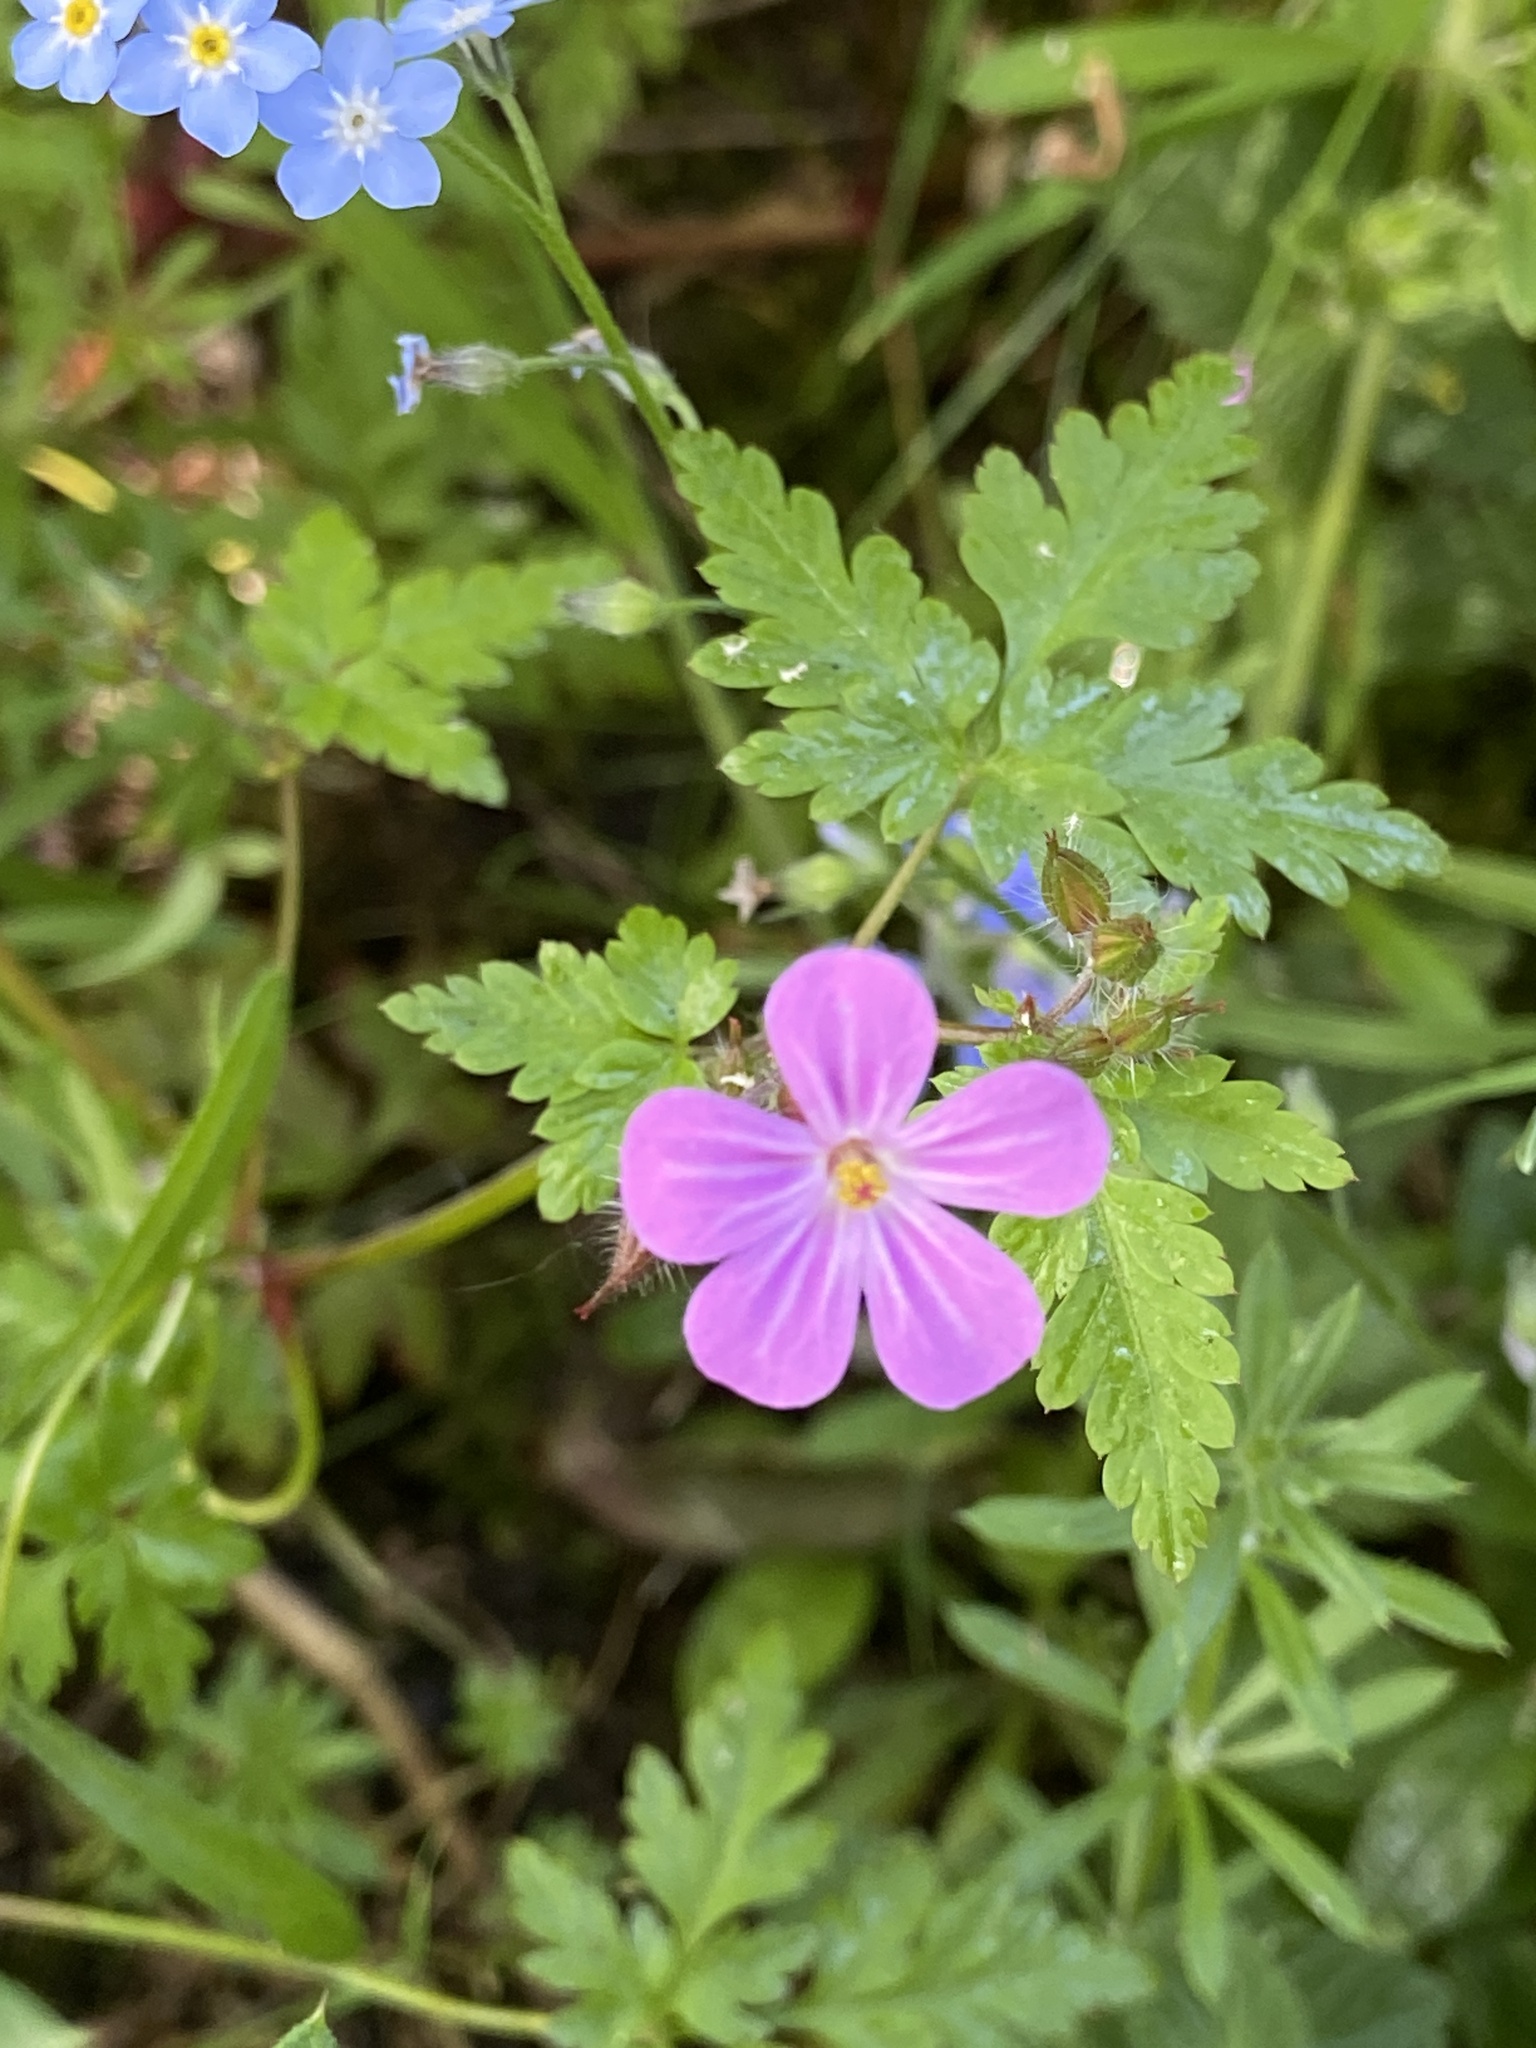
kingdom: Plantae
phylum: Tracheophyta
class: Magnoliopsida
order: Geraniales
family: Geraniaceae
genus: Geranium
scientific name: Geranium robertianum
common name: Herb-robert
